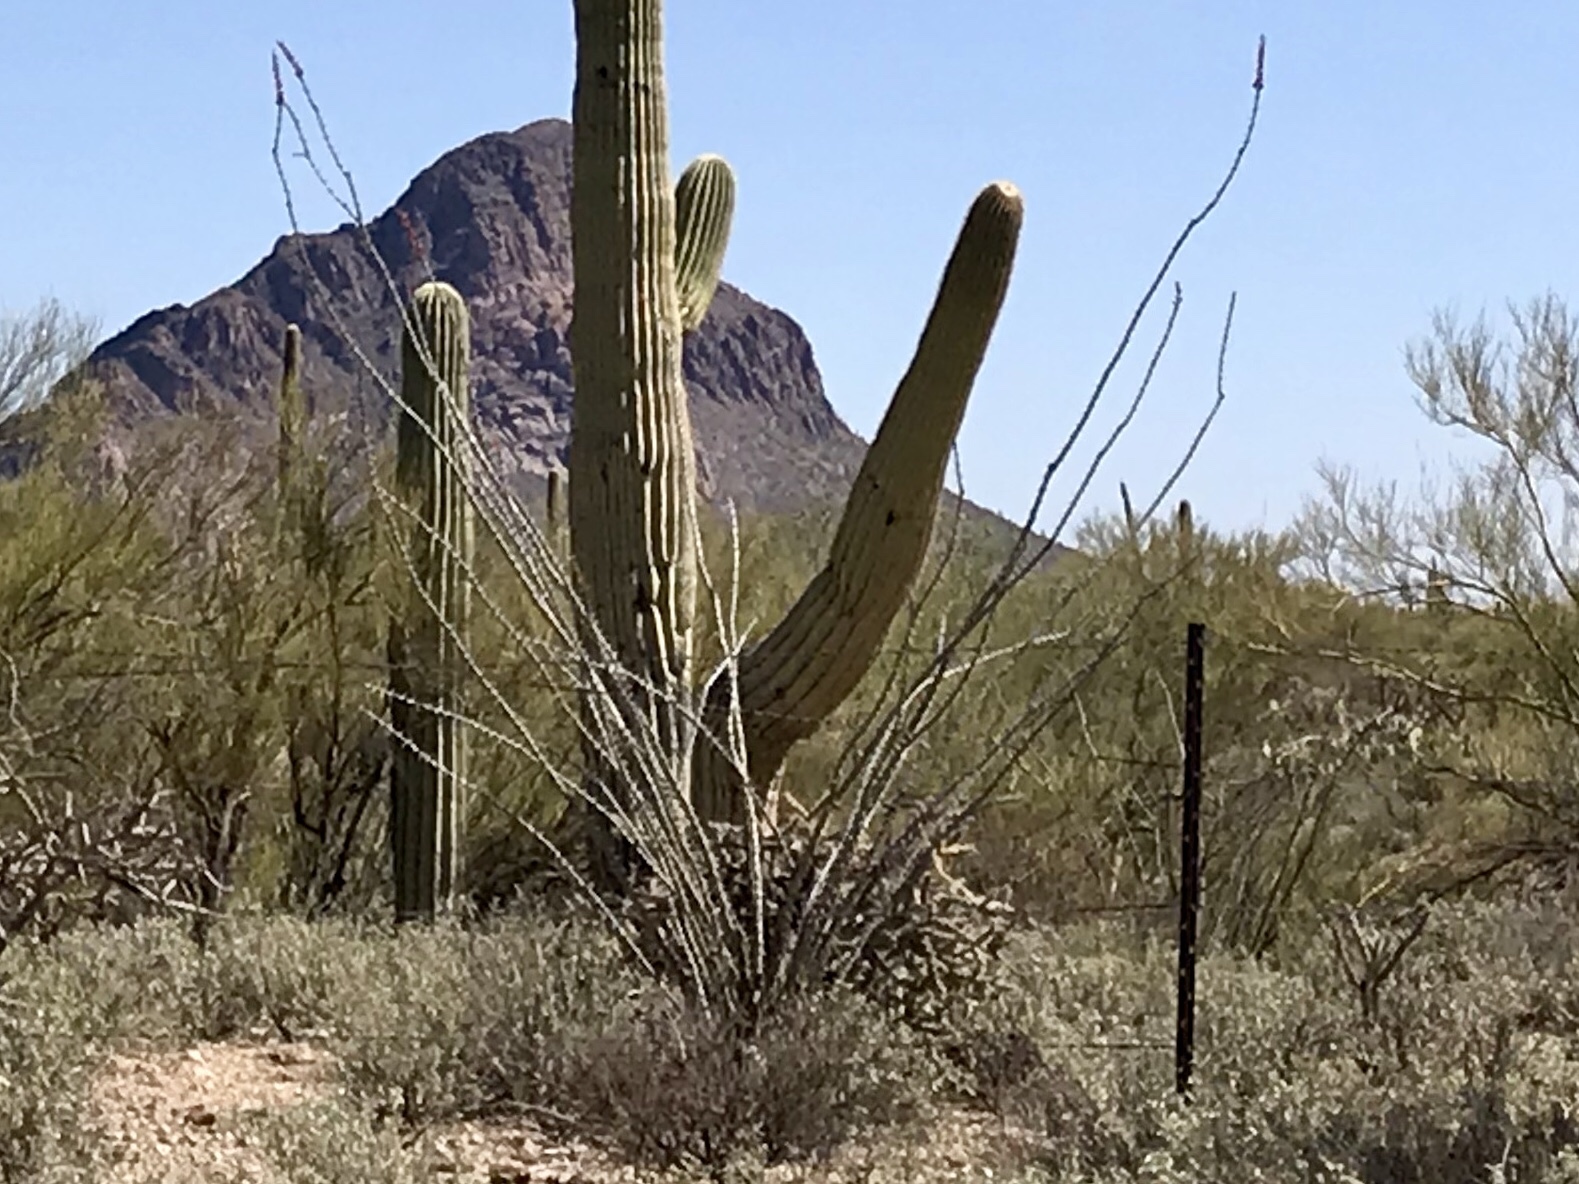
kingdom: Plantae
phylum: Tracheophyta
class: Magnoliopsida
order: Ericales
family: Fouquieriaceae
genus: Fouquieria
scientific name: Fouquieria splendens
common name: Vine-cactus
